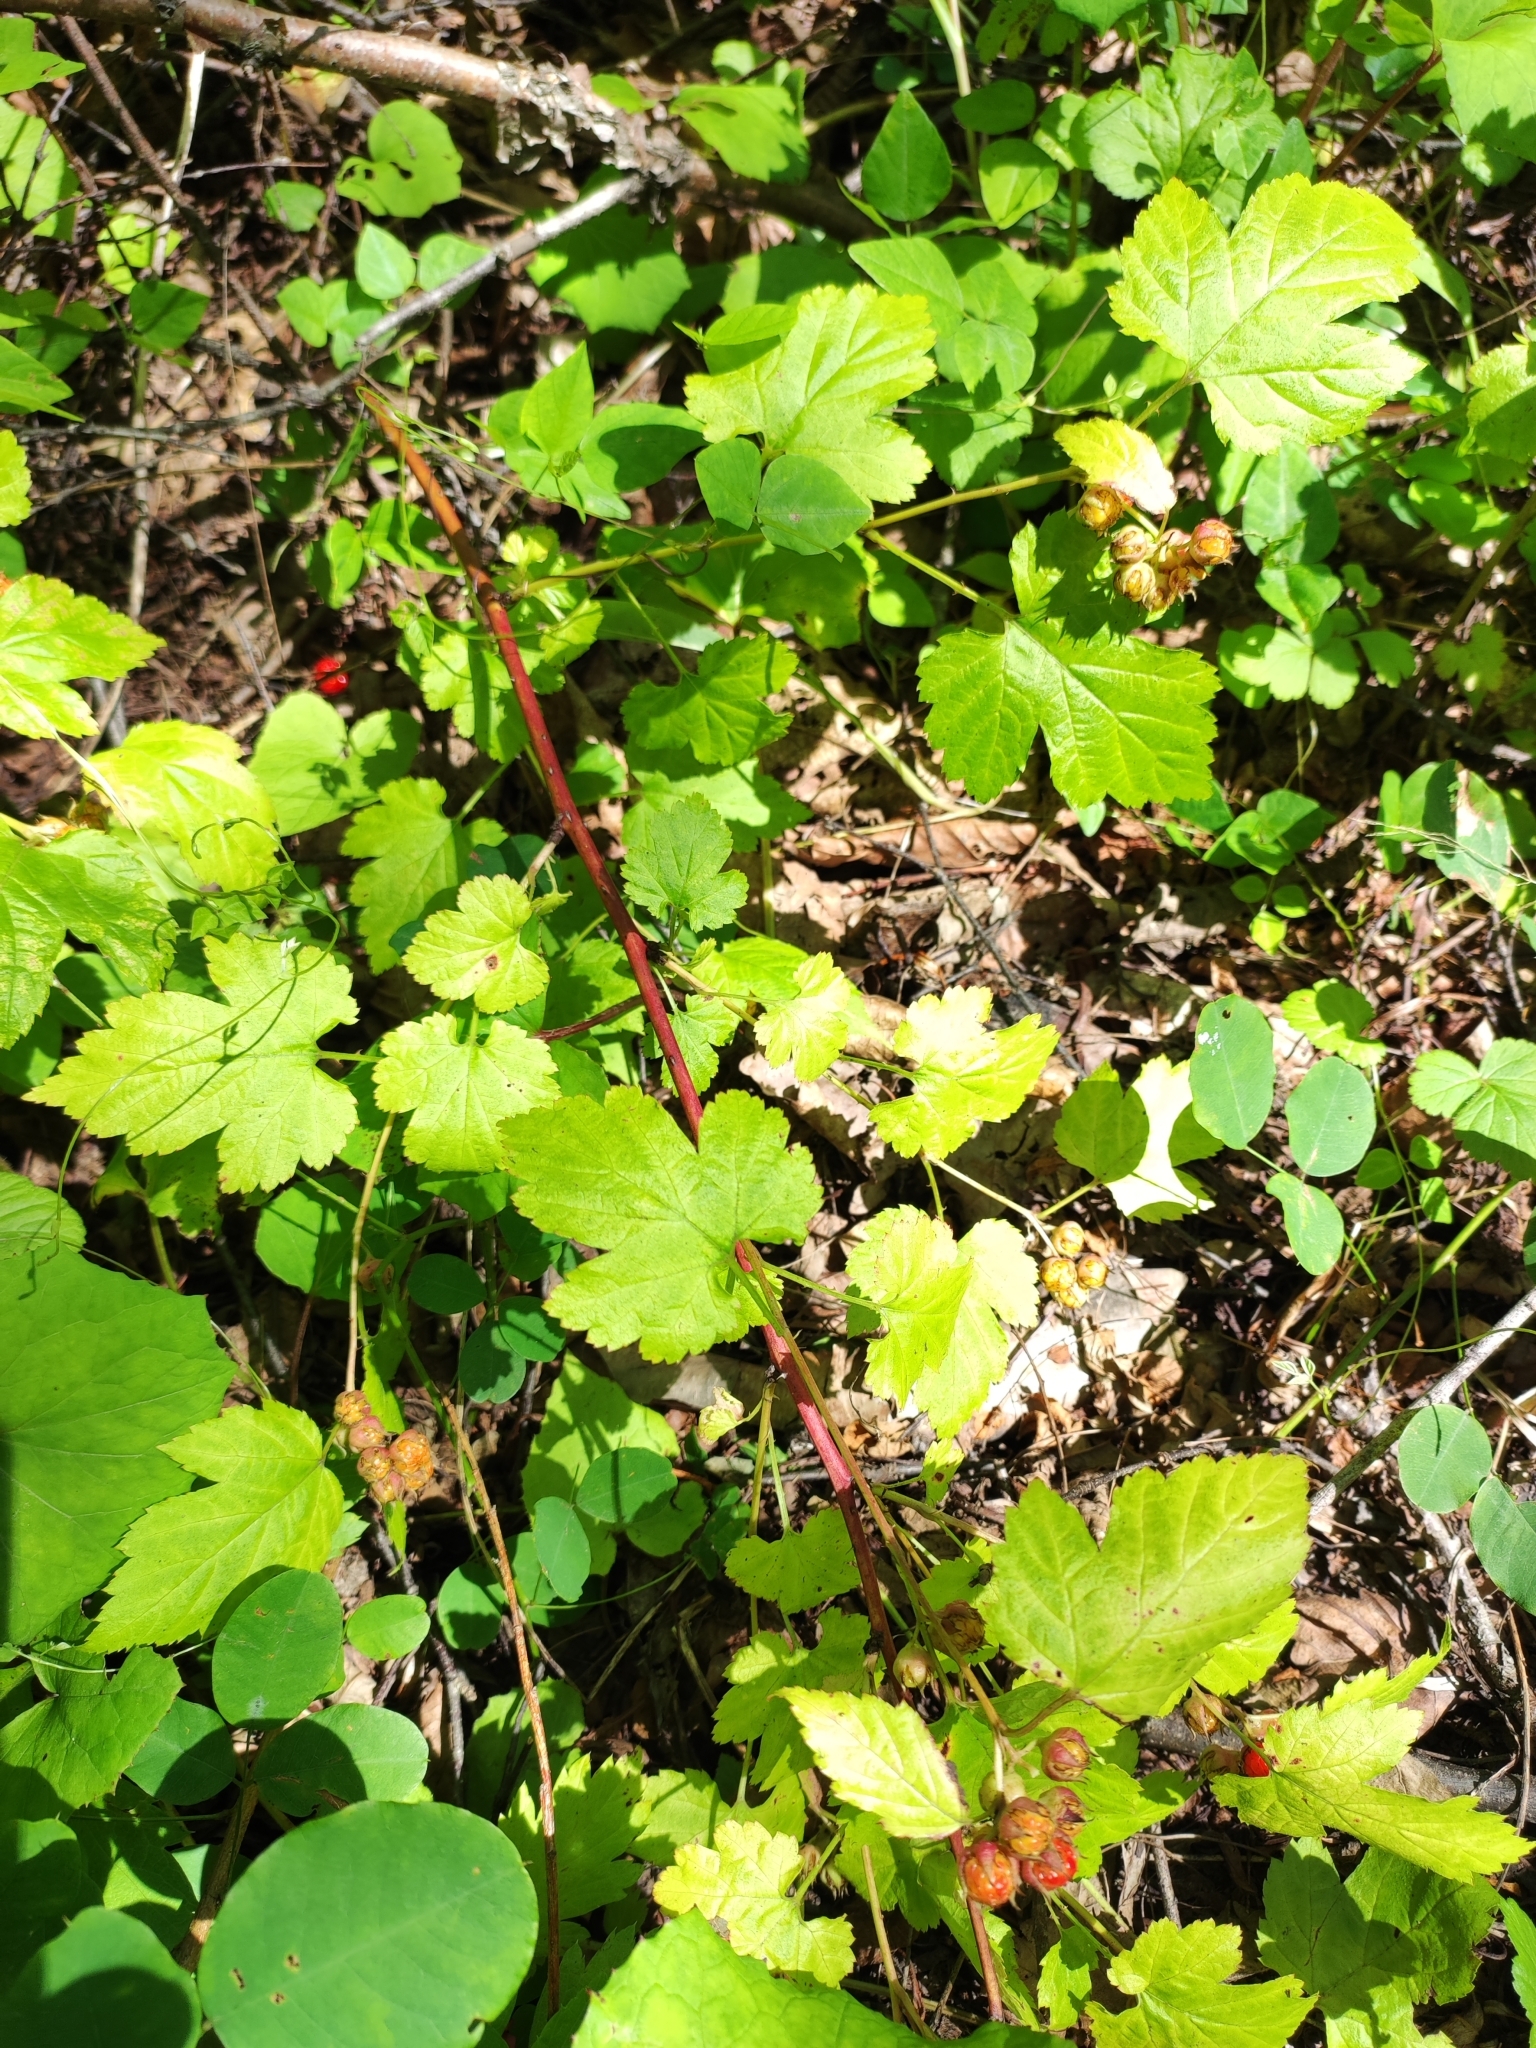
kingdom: Plantae
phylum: Tracheophyta
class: Magnoliopsida
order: Rosales
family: Rosaceae
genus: Rubus
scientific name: Rubus crataegifolius
